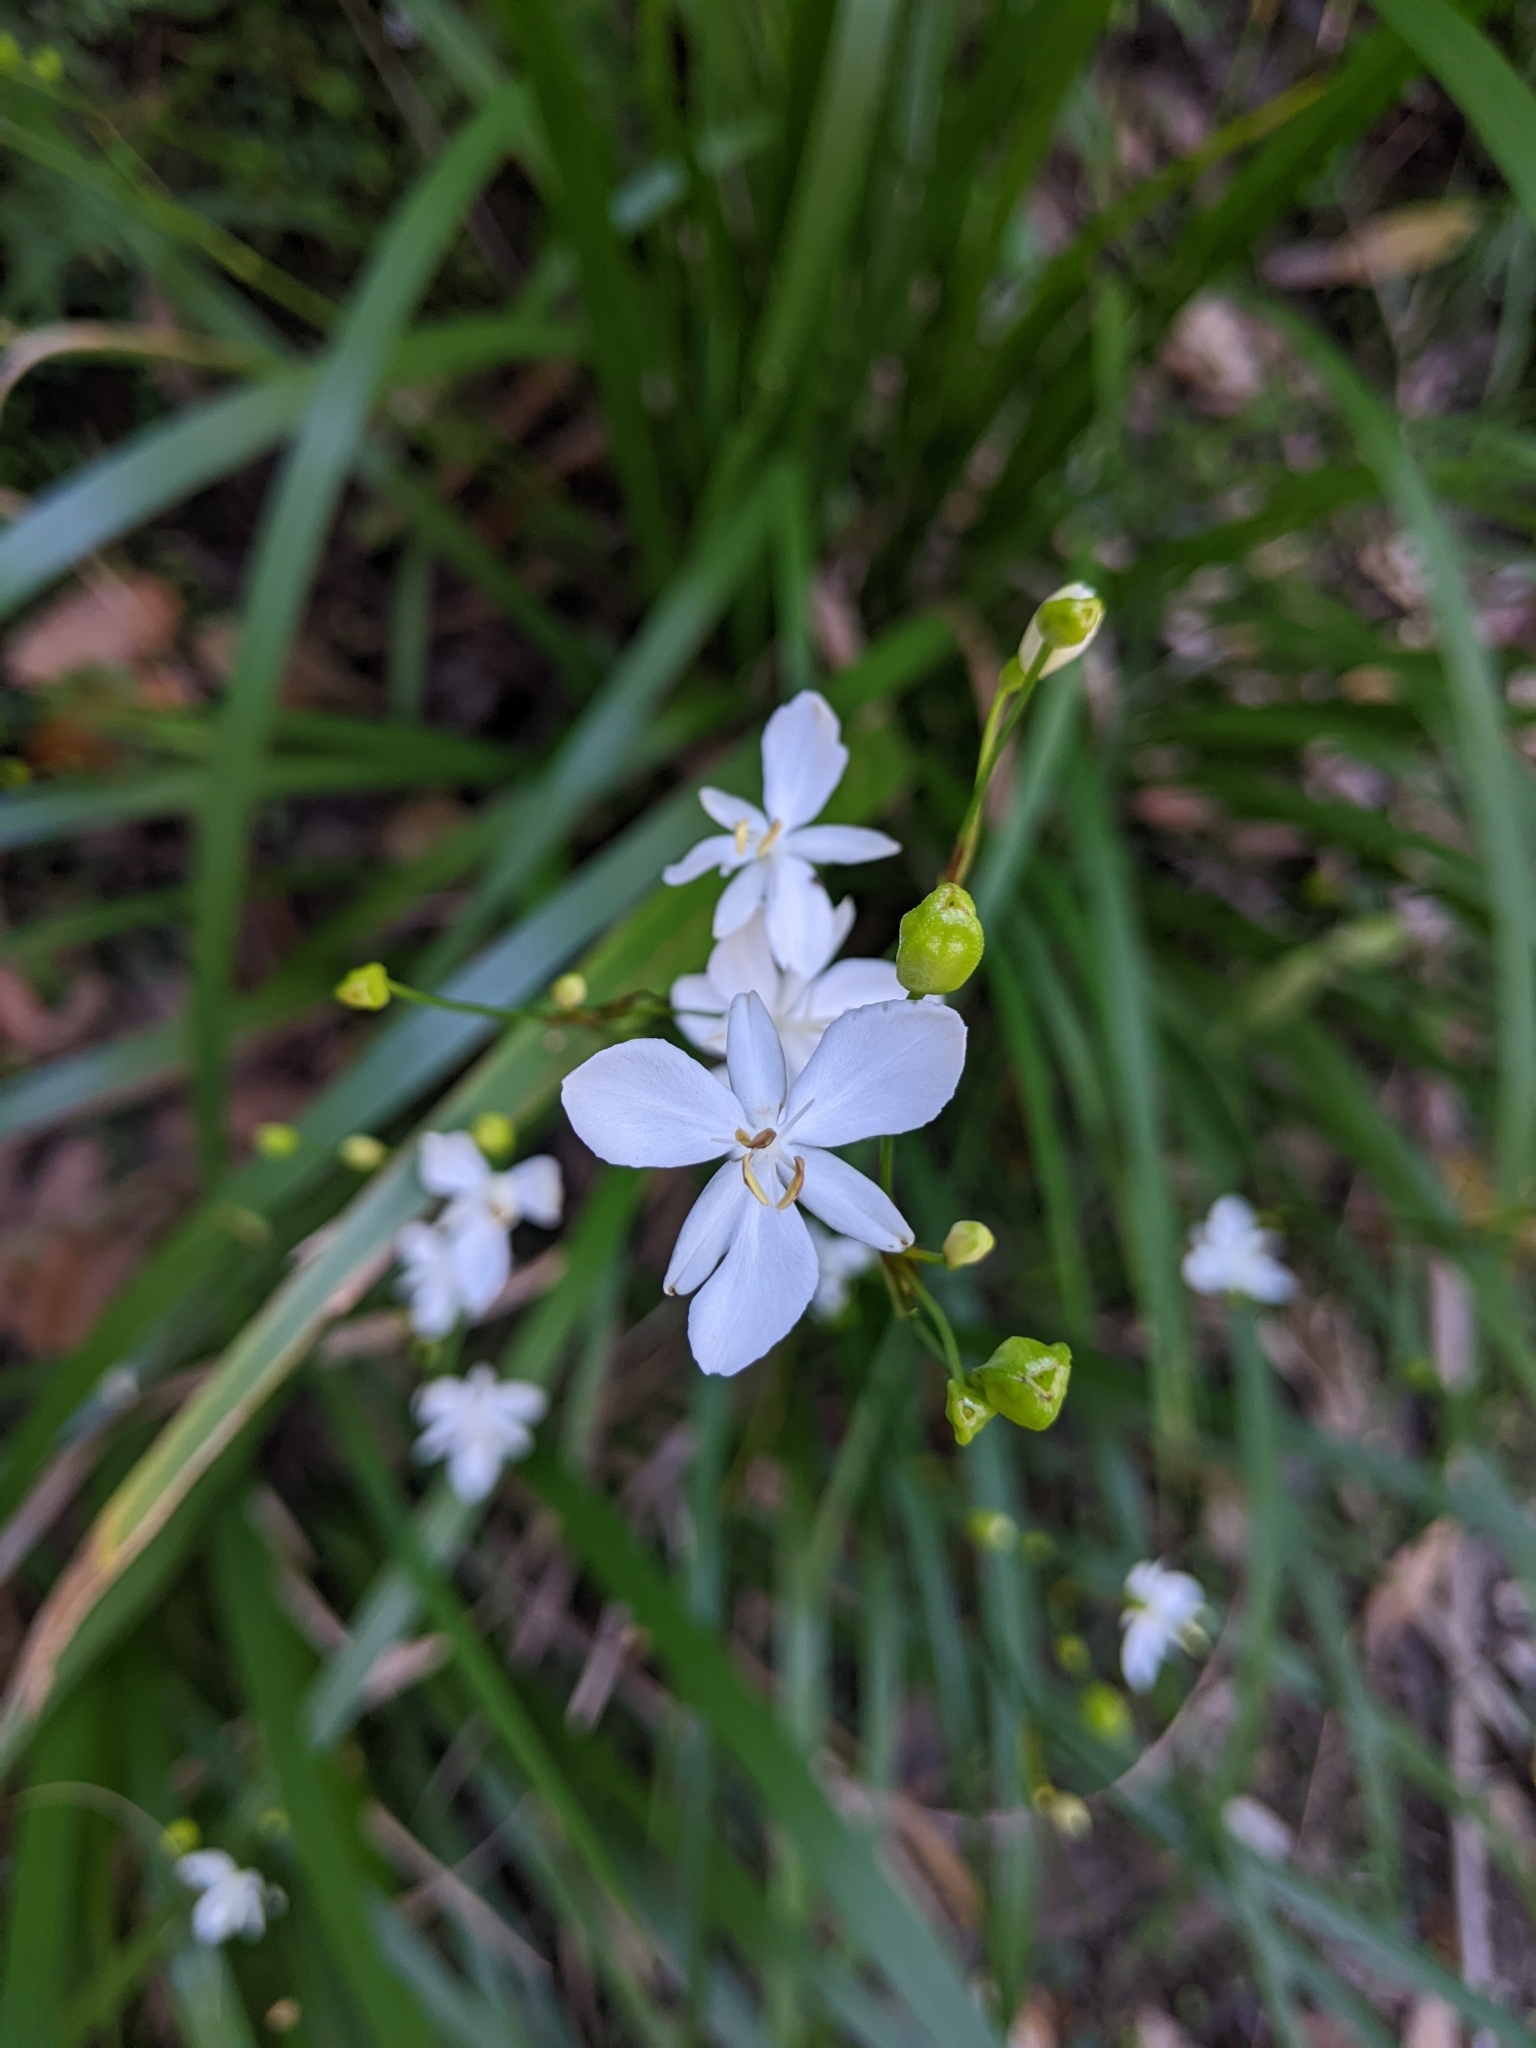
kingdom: Plantae
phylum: Tracheophyta
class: Liliopsida
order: Asparagales
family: Iridaceae
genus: Libertia
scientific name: Libertia paniculata
